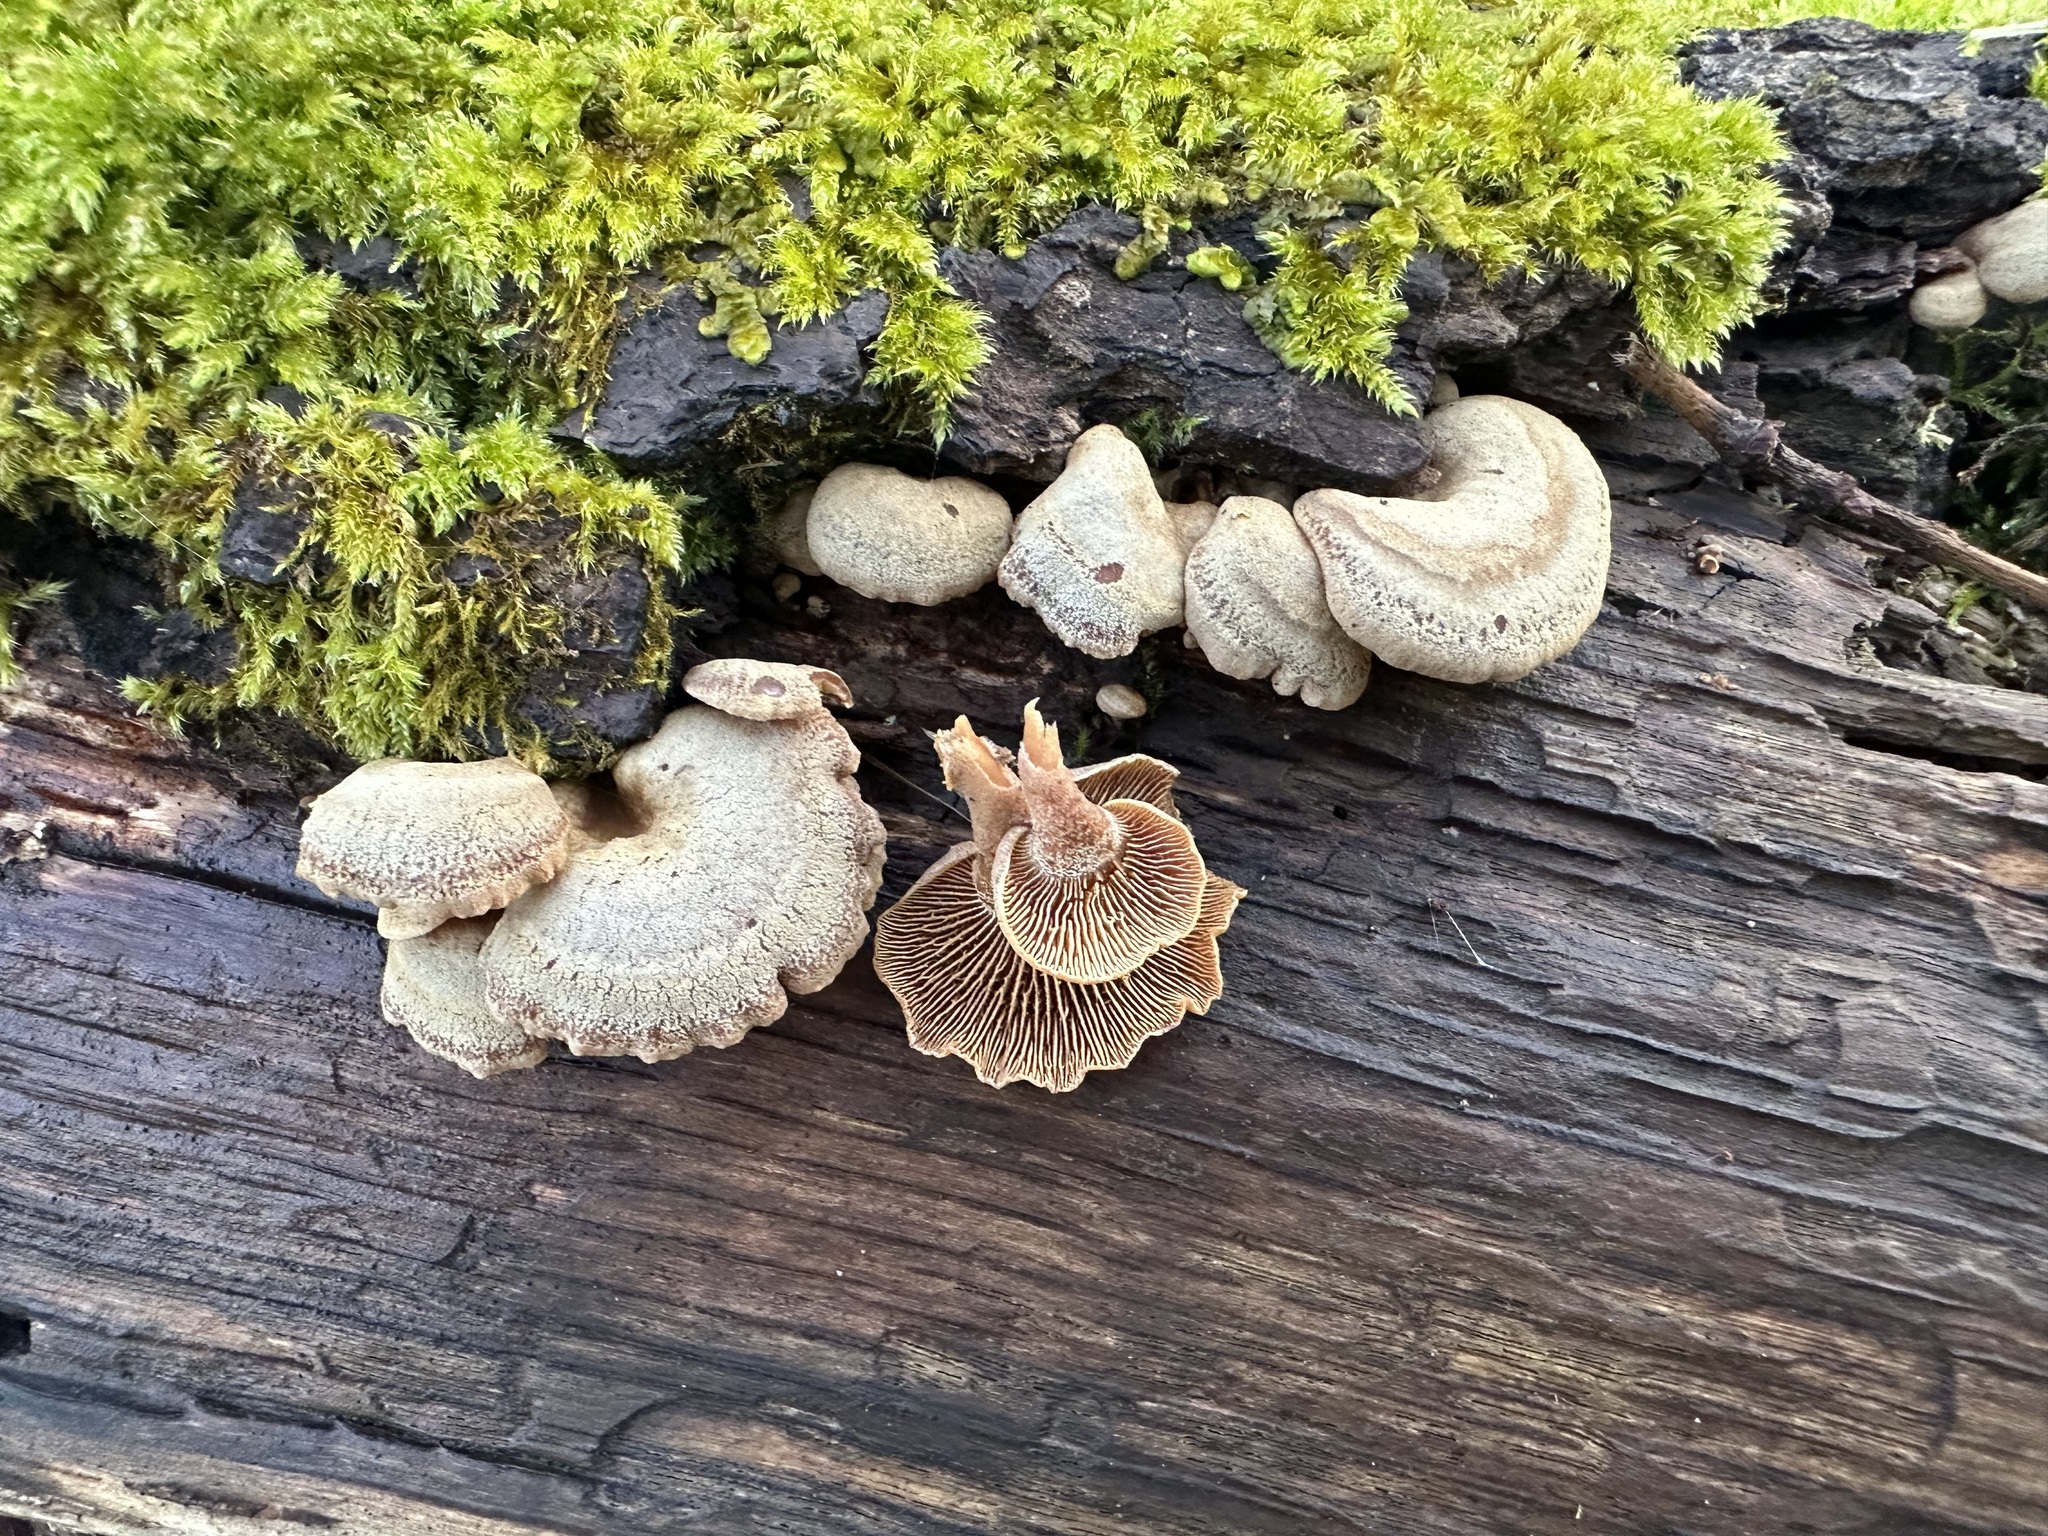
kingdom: Fungi
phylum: Basidiomycota
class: Agaricomycetes
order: Agaricales
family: Mycenaceae
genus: Panellus
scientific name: Panellus stipticus
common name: Bitter oysterling
